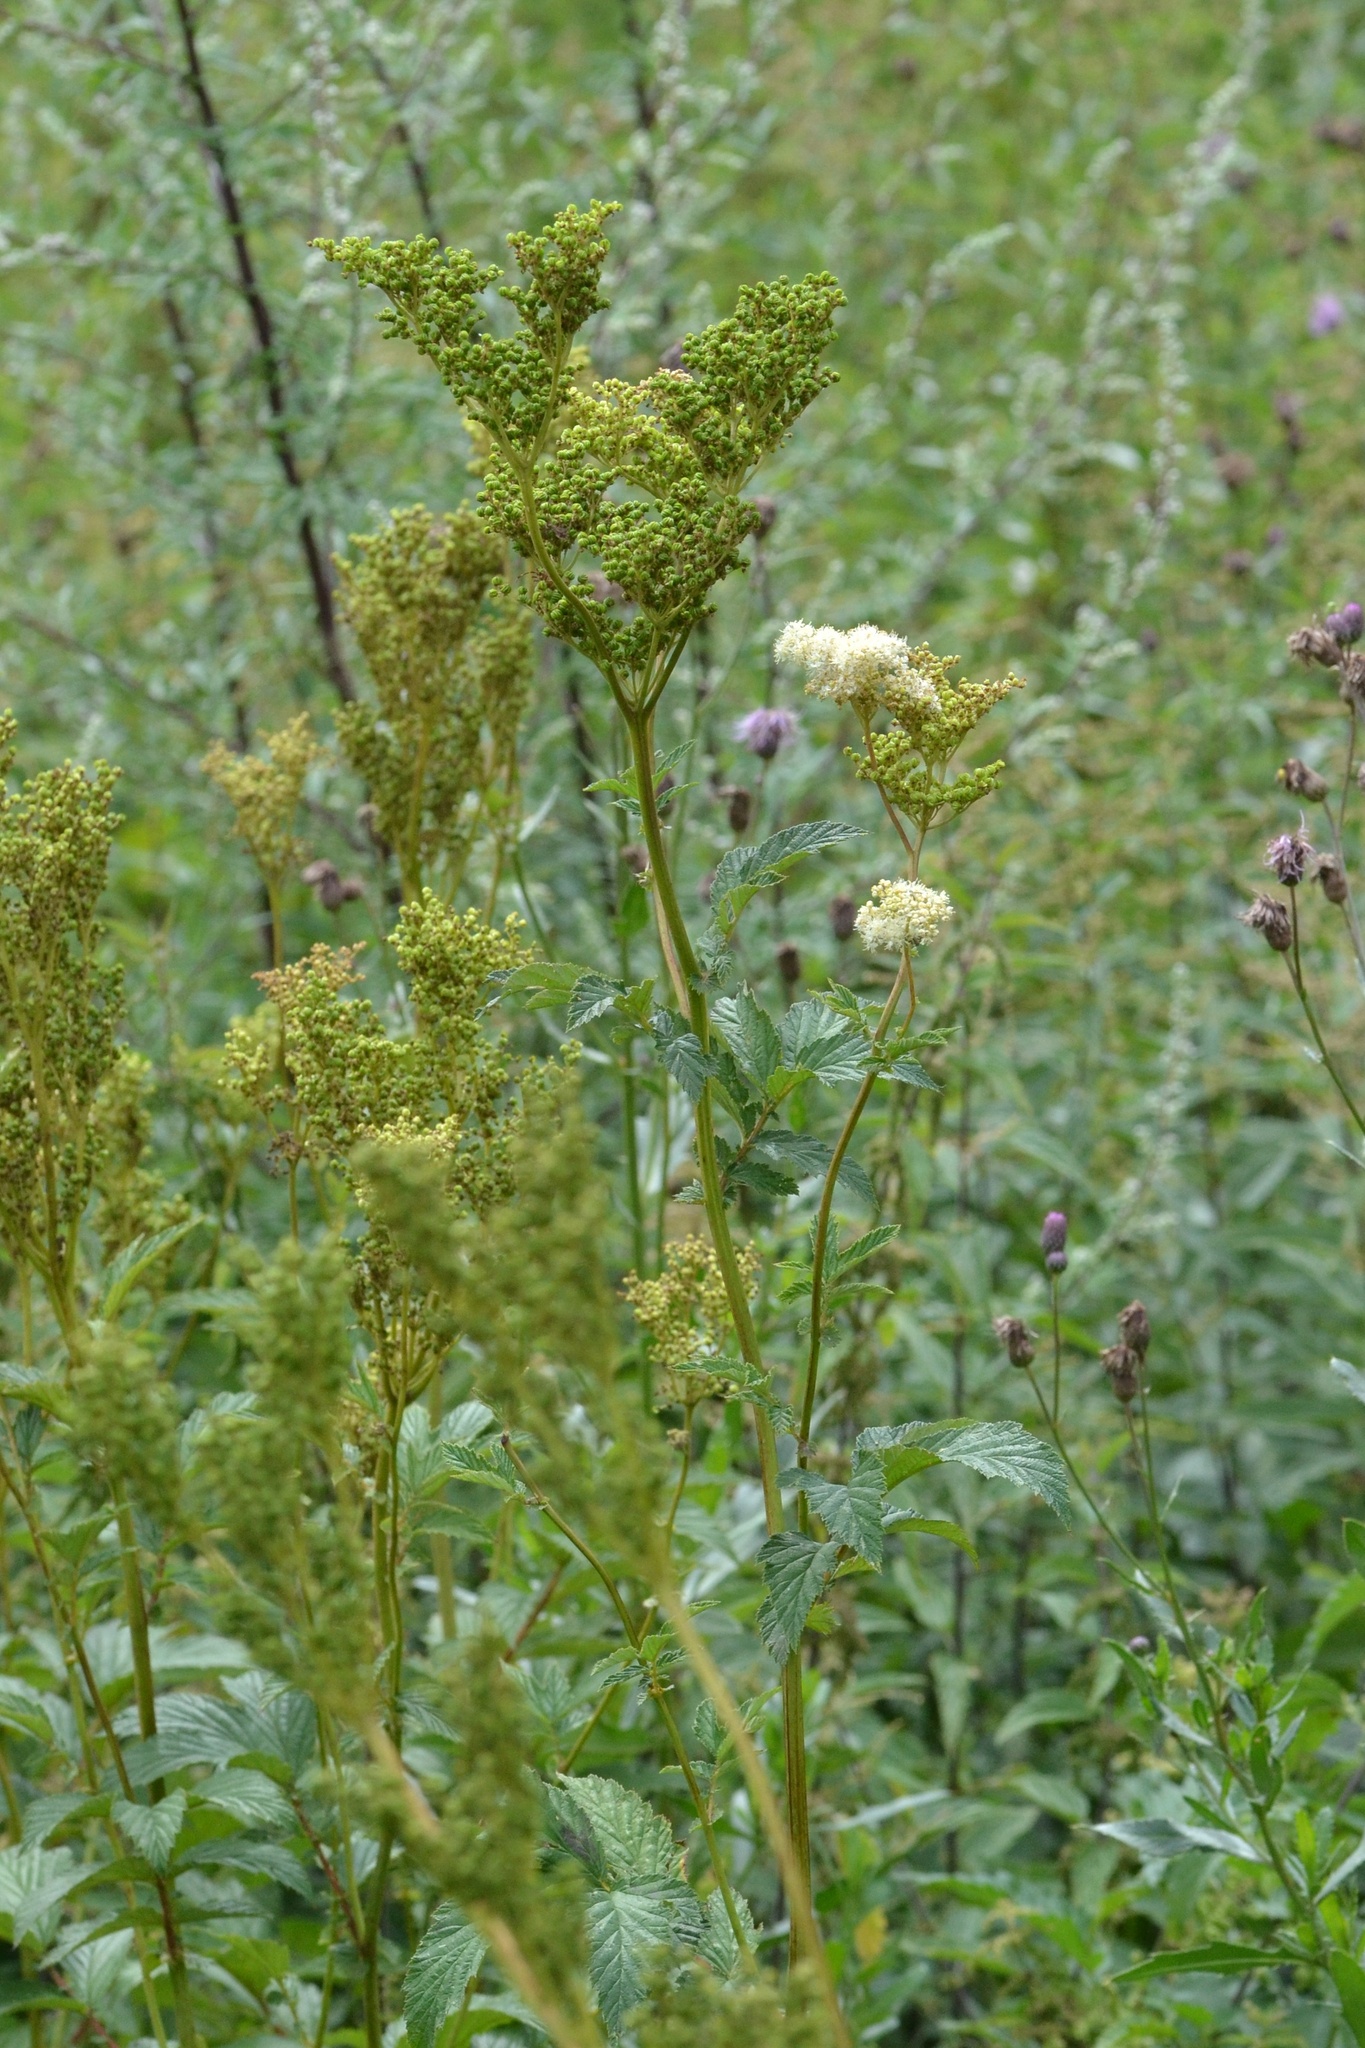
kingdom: Plantae
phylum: Tracheophyta
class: Magnoliopsida
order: Rosales
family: Rosaceae
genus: Filipendula
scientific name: Filipendula ulmaria
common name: Meadowsweet
